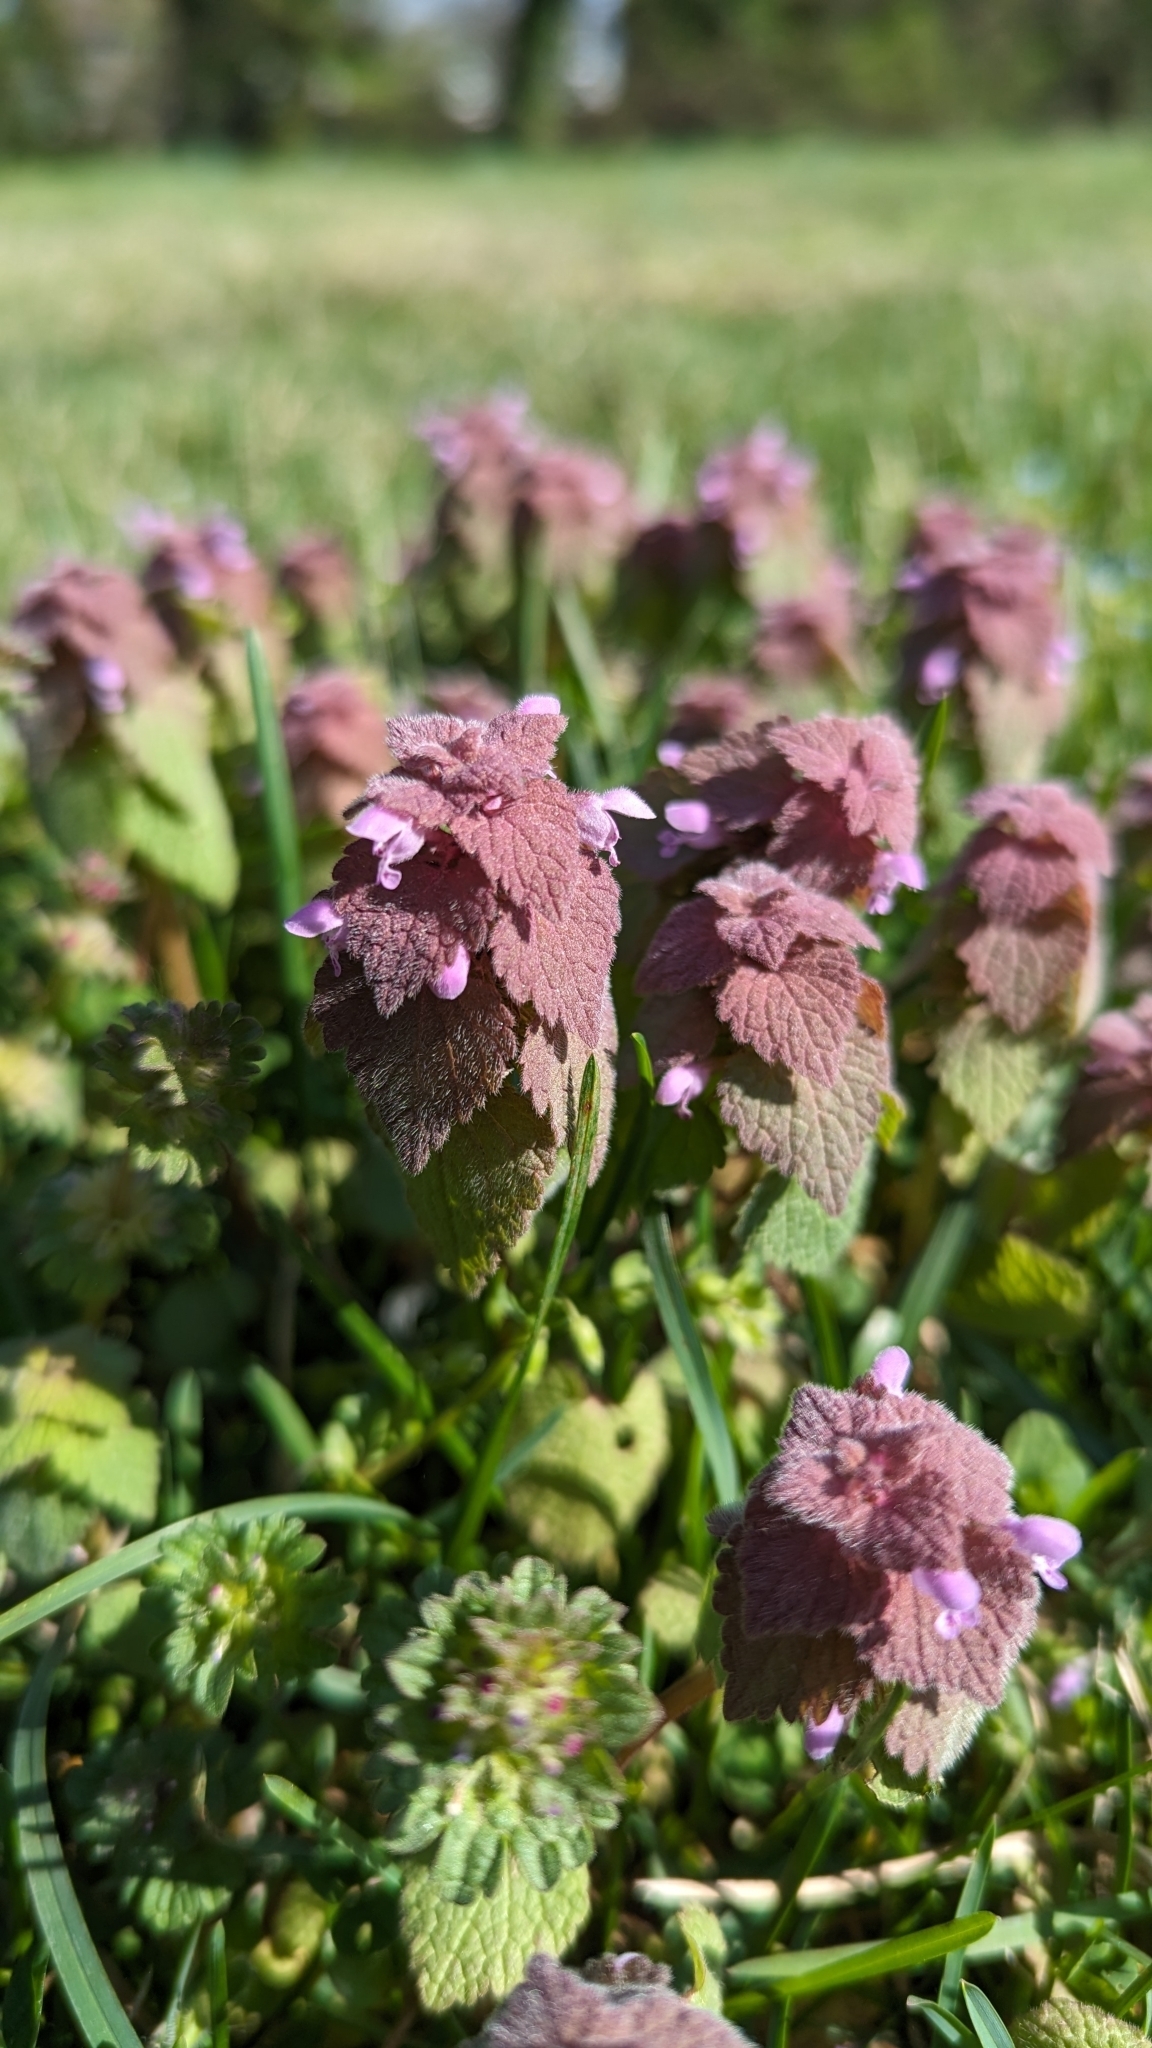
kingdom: Plantae
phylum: Tracheophyta
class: Magnoliopsida
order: Lamiales
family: Lamiaceae
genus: Lamium
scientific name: Lamium purpureum
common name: Red dead-nettle
